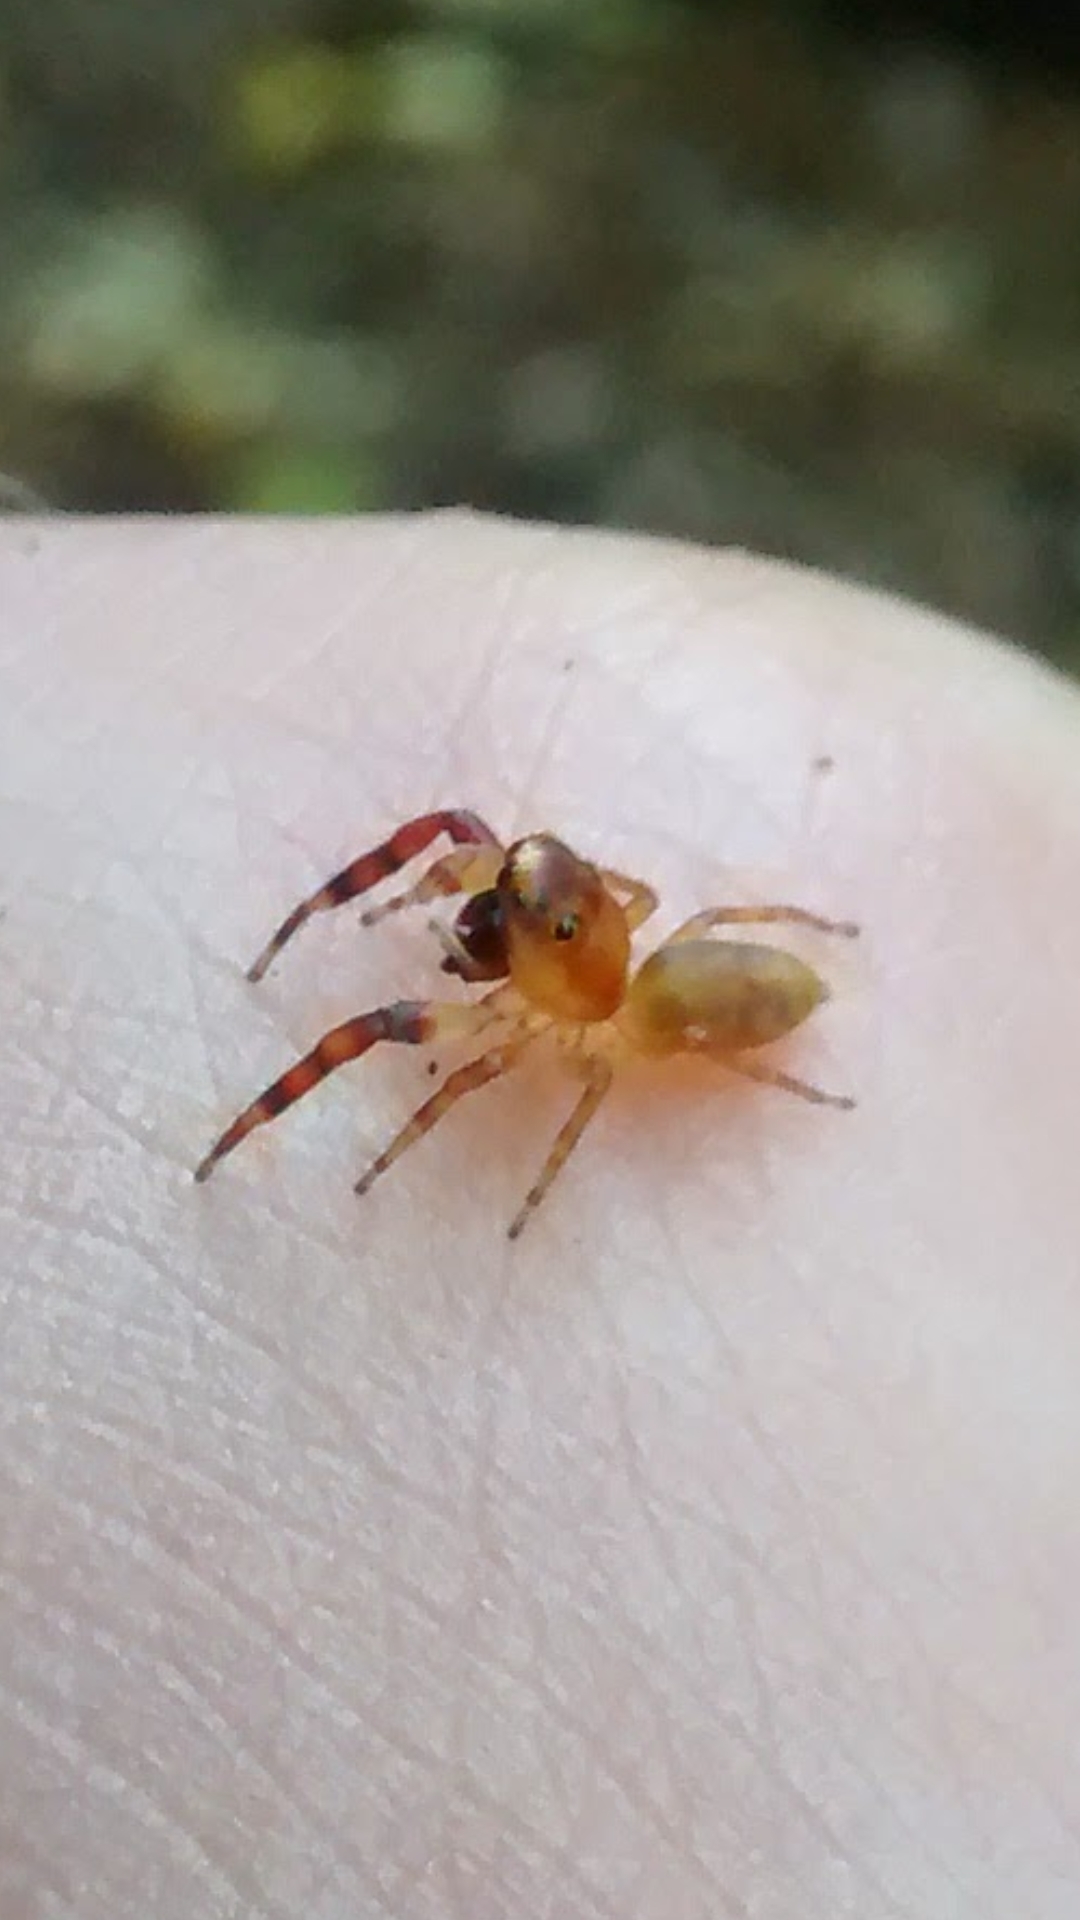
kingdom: Animalia
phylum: Arthropoda
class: Arachnida
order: Araneae
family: Salticidae
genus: Trite
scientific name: Trite mustilina
